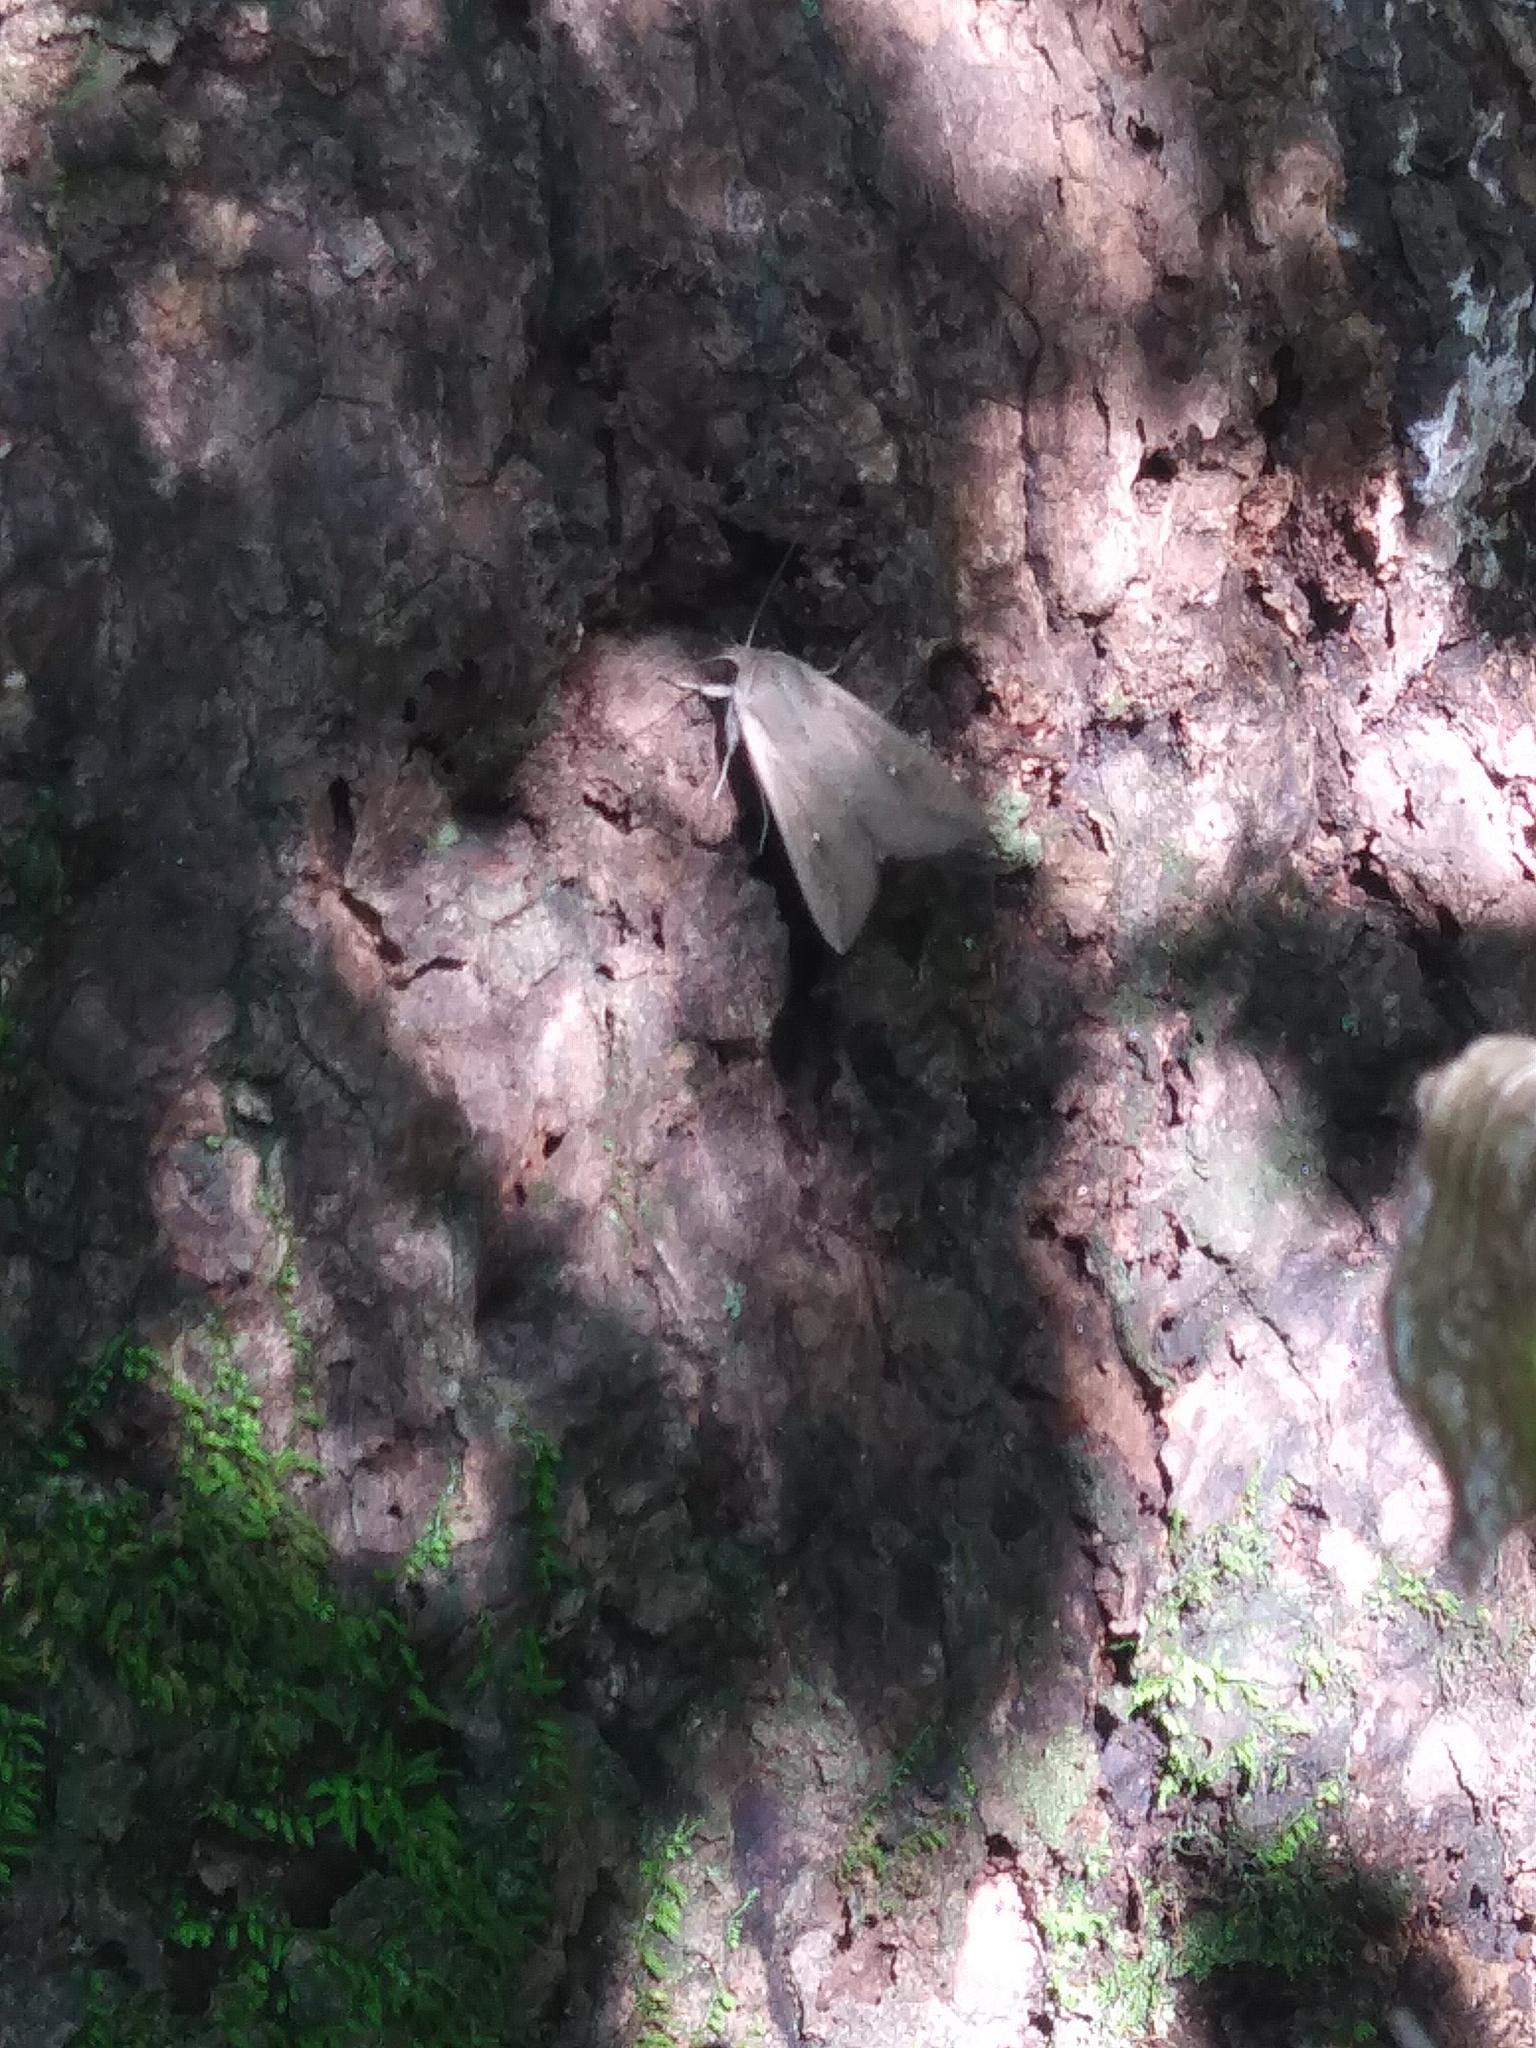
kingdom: Animalia
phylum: Arthropoda
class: Insecta
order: Lepidoptera
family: Noctuidae
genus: Mythimna
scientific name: Mythimna unipuncta
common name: White-speck
